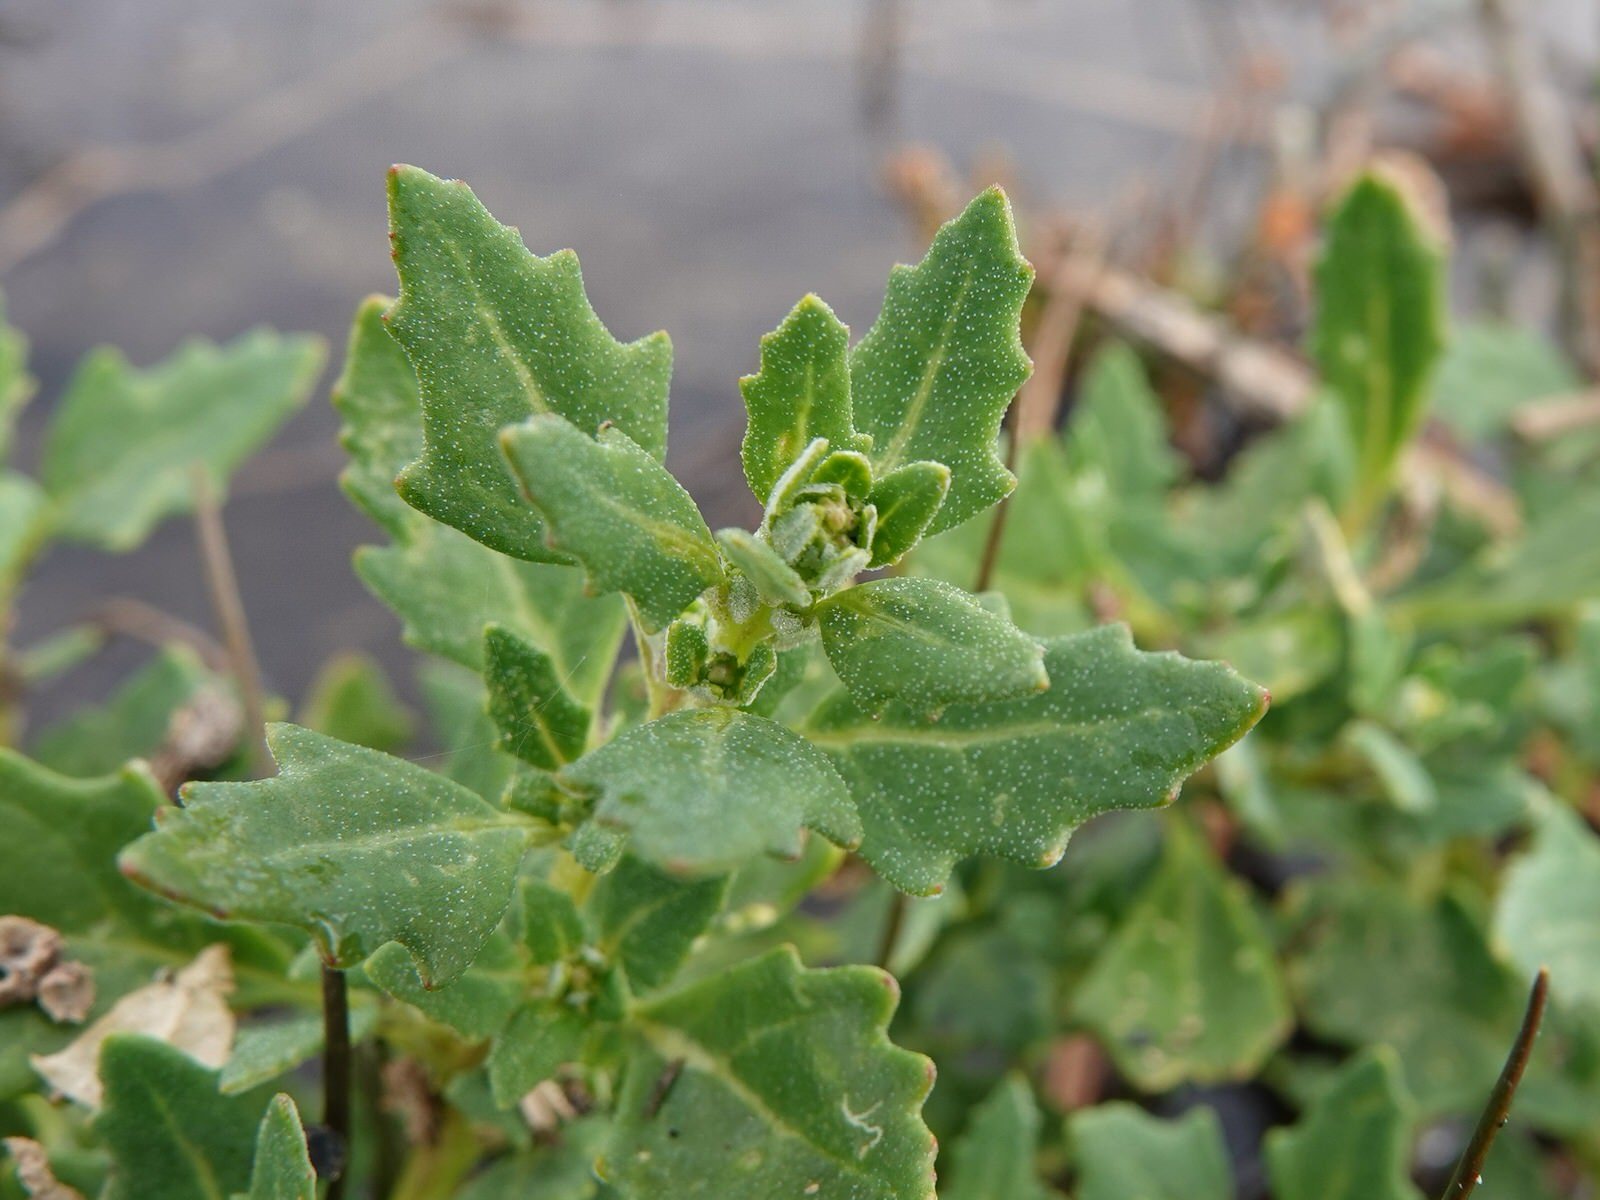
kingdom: Plantae
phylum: Tracheophyta
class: Magnoliopsida
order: Caryophyllales
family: Amaranthaceae
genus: Oxybasis
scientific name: Oxybasis ambigua
